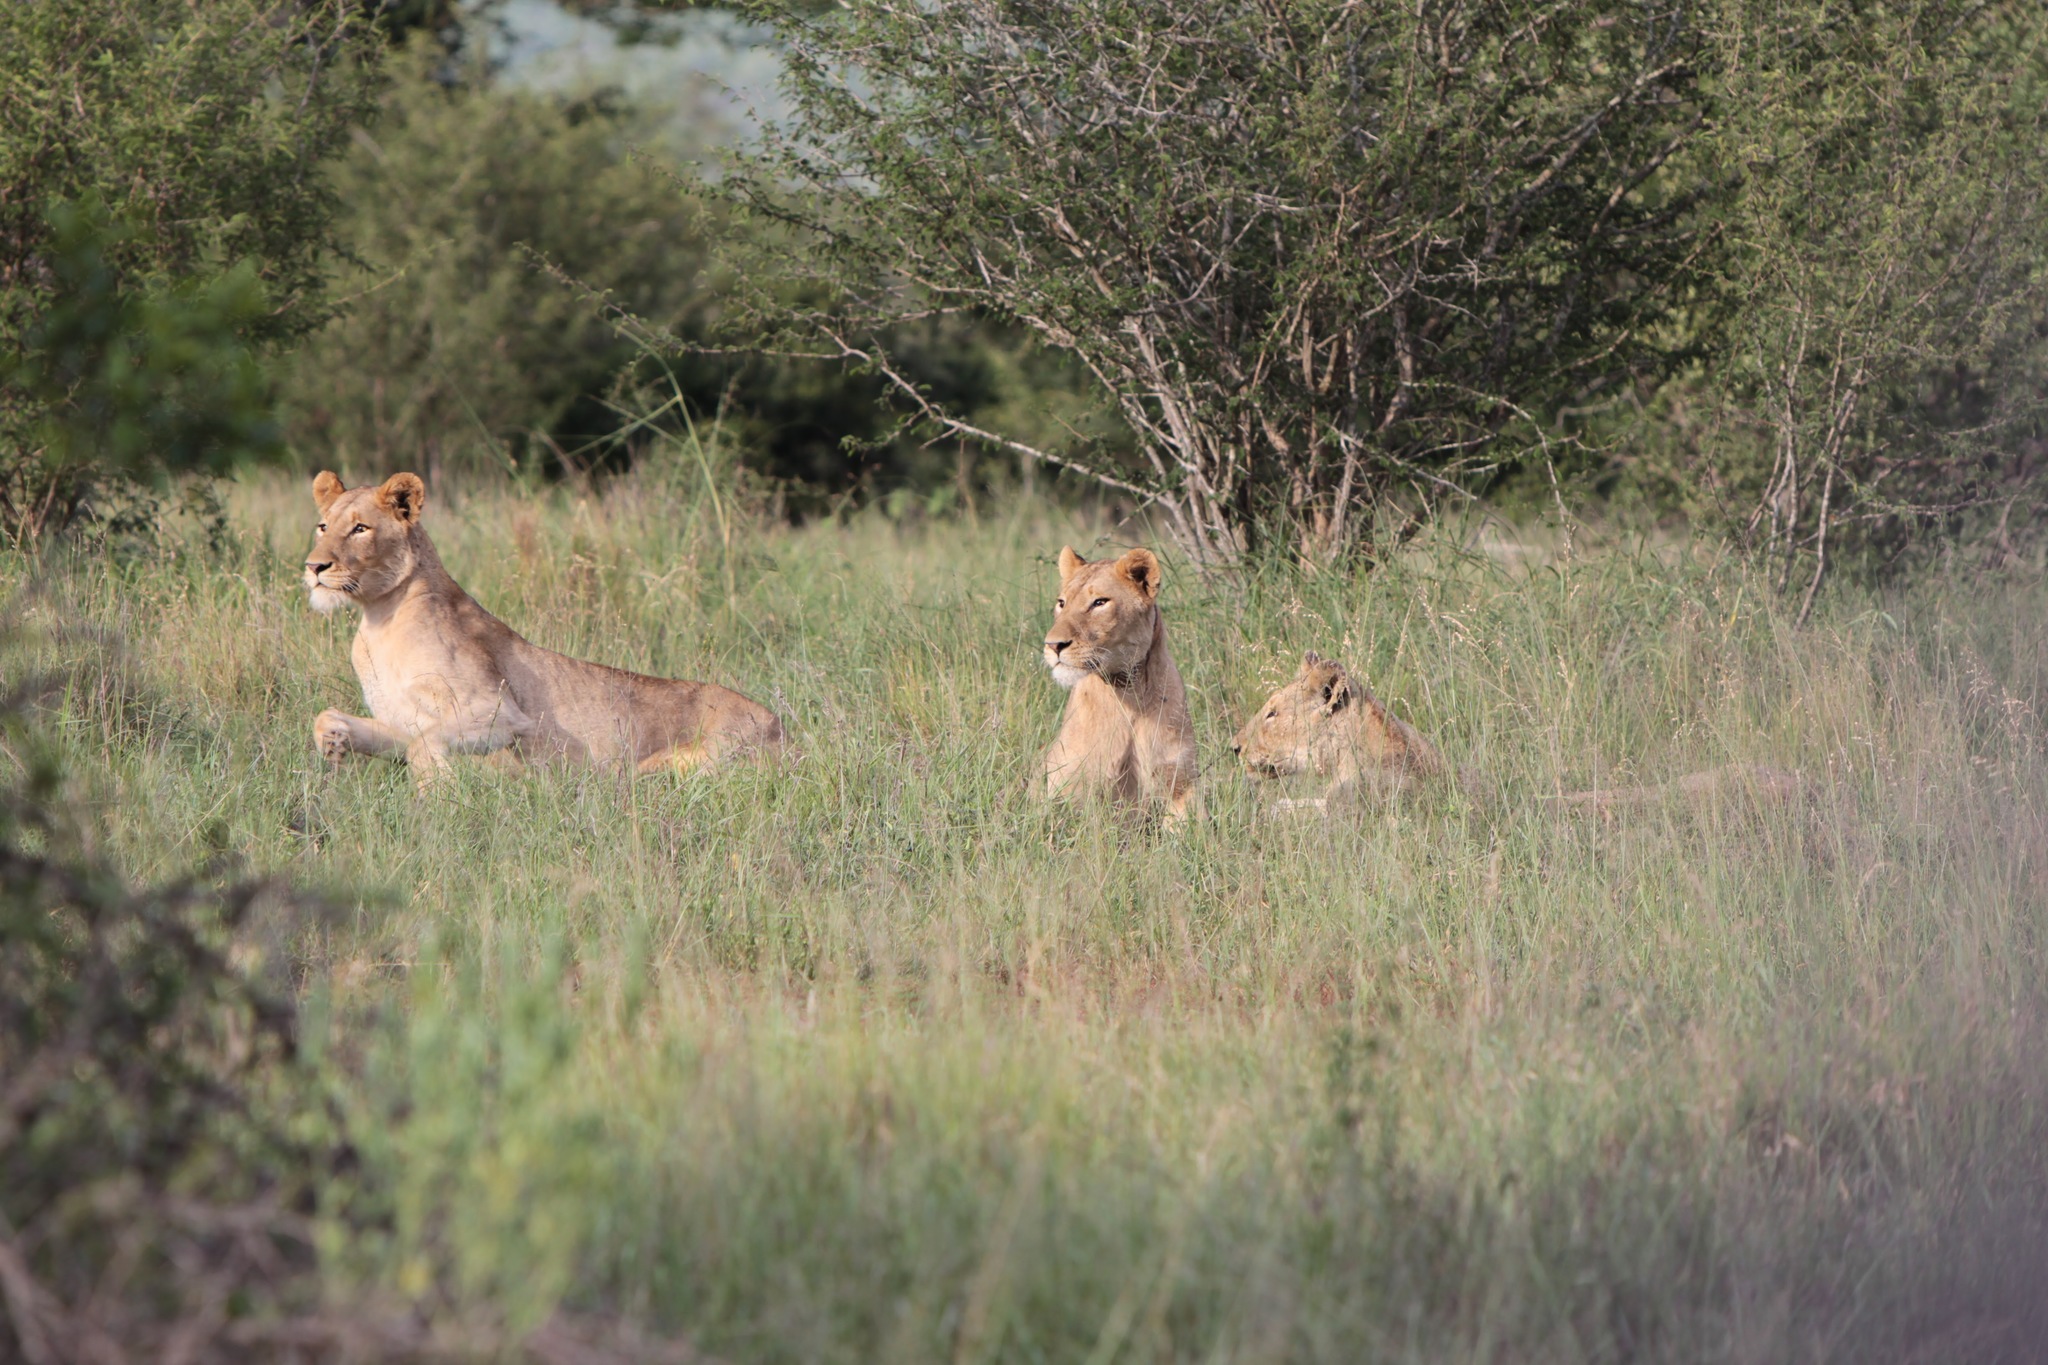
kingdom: Animalia
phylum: Chordata
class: Mammalia
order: Carnivora
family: Felidae
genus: Panthera
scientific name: Panthera leo
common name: Lion
